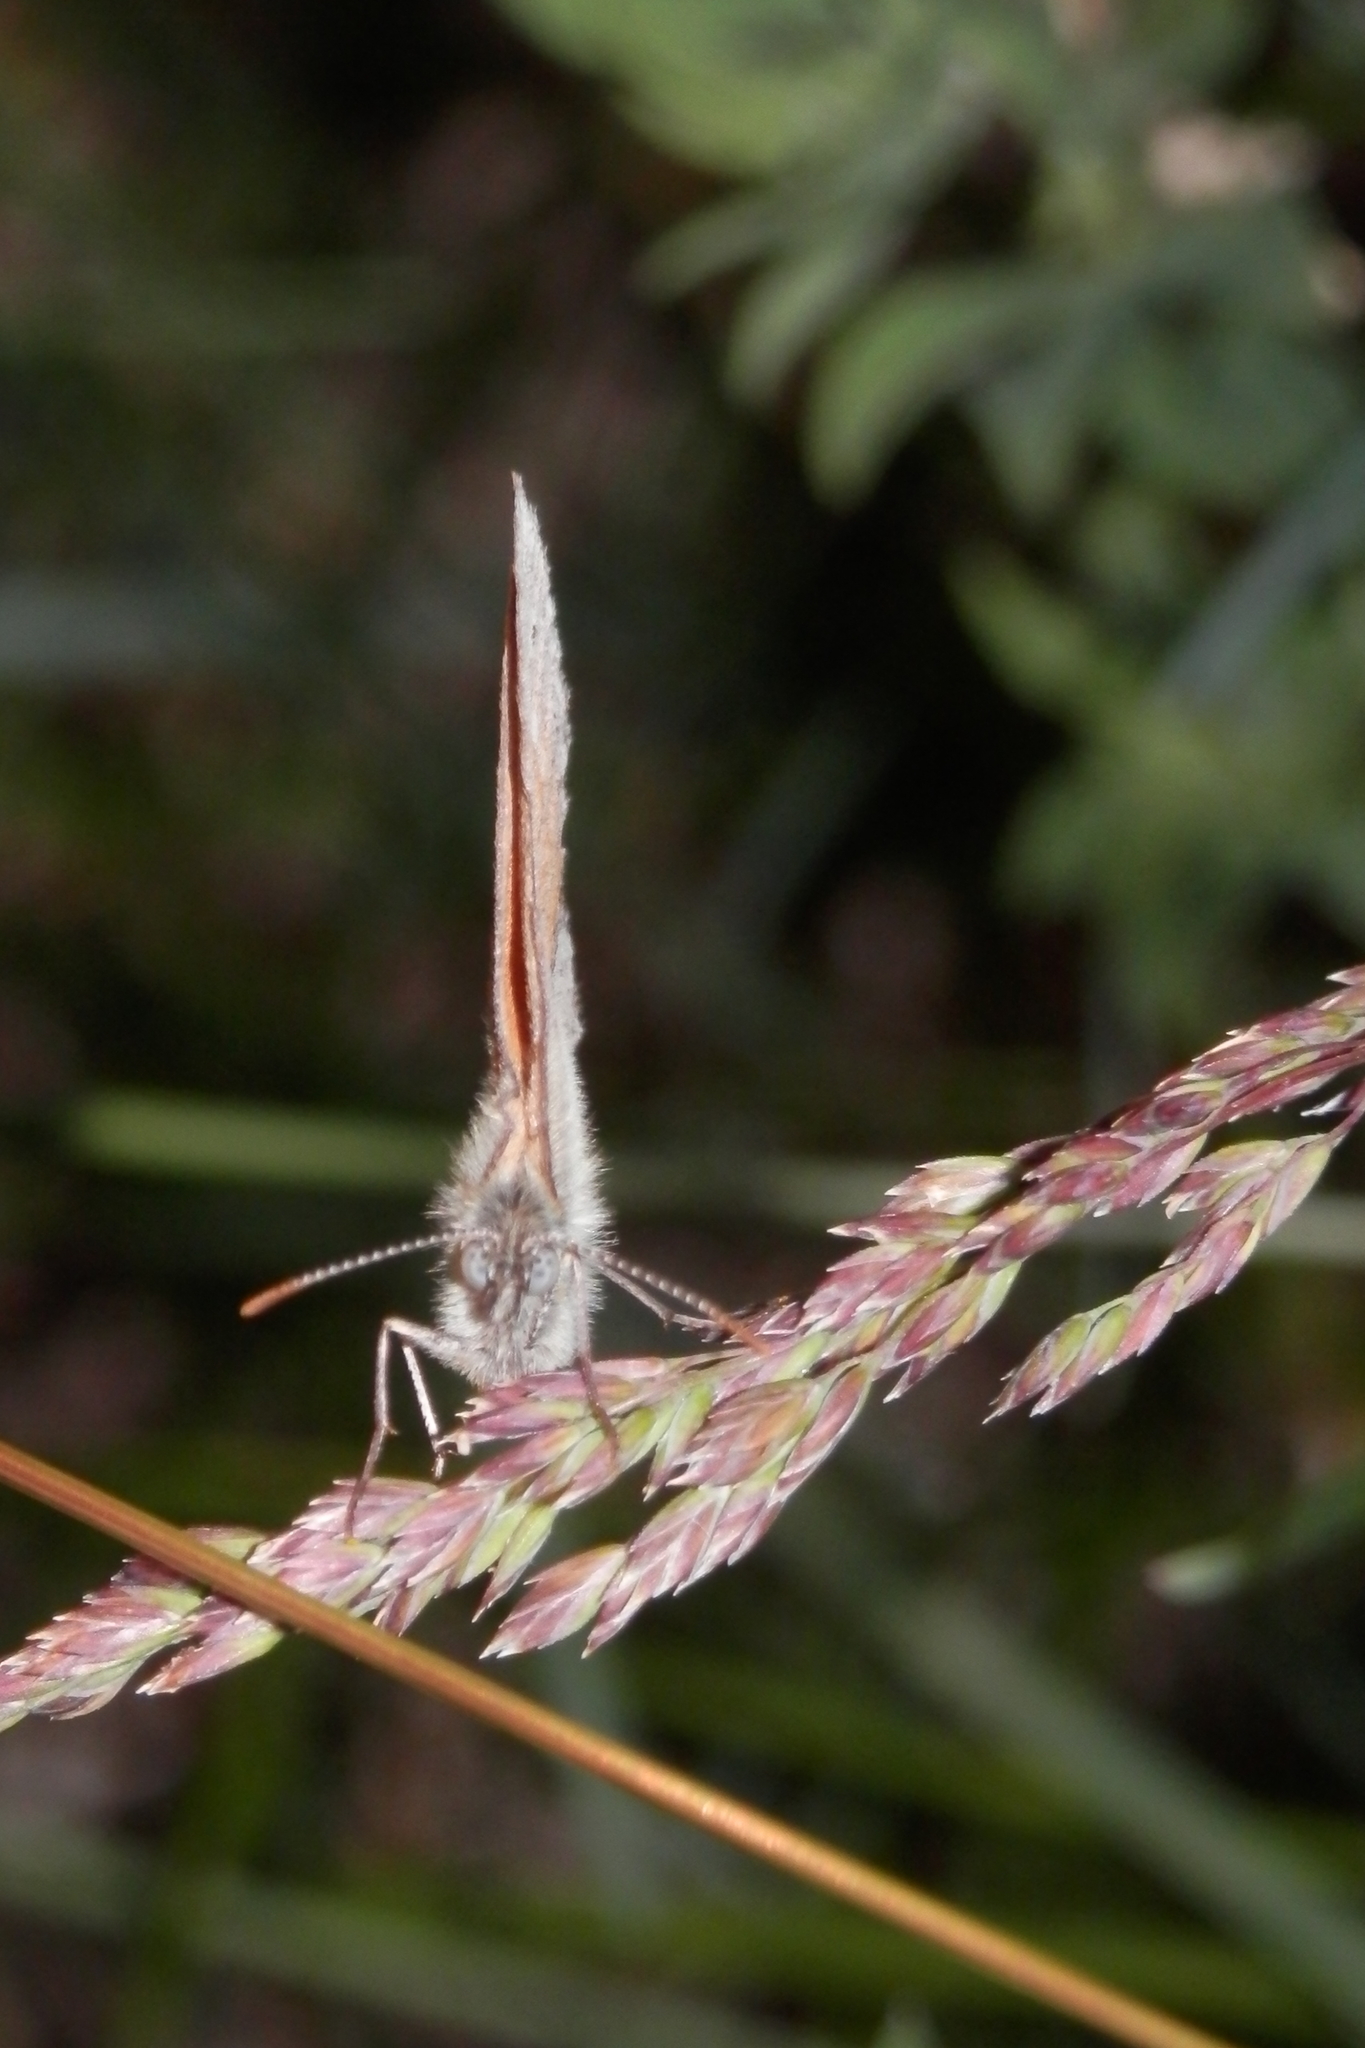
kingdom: Animalia
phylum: Arthropoda
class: Insecta
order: Lepidoptera
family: Nymphalidae
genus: Coenonympha
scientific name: Coenonympha california
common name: Common ringlet
